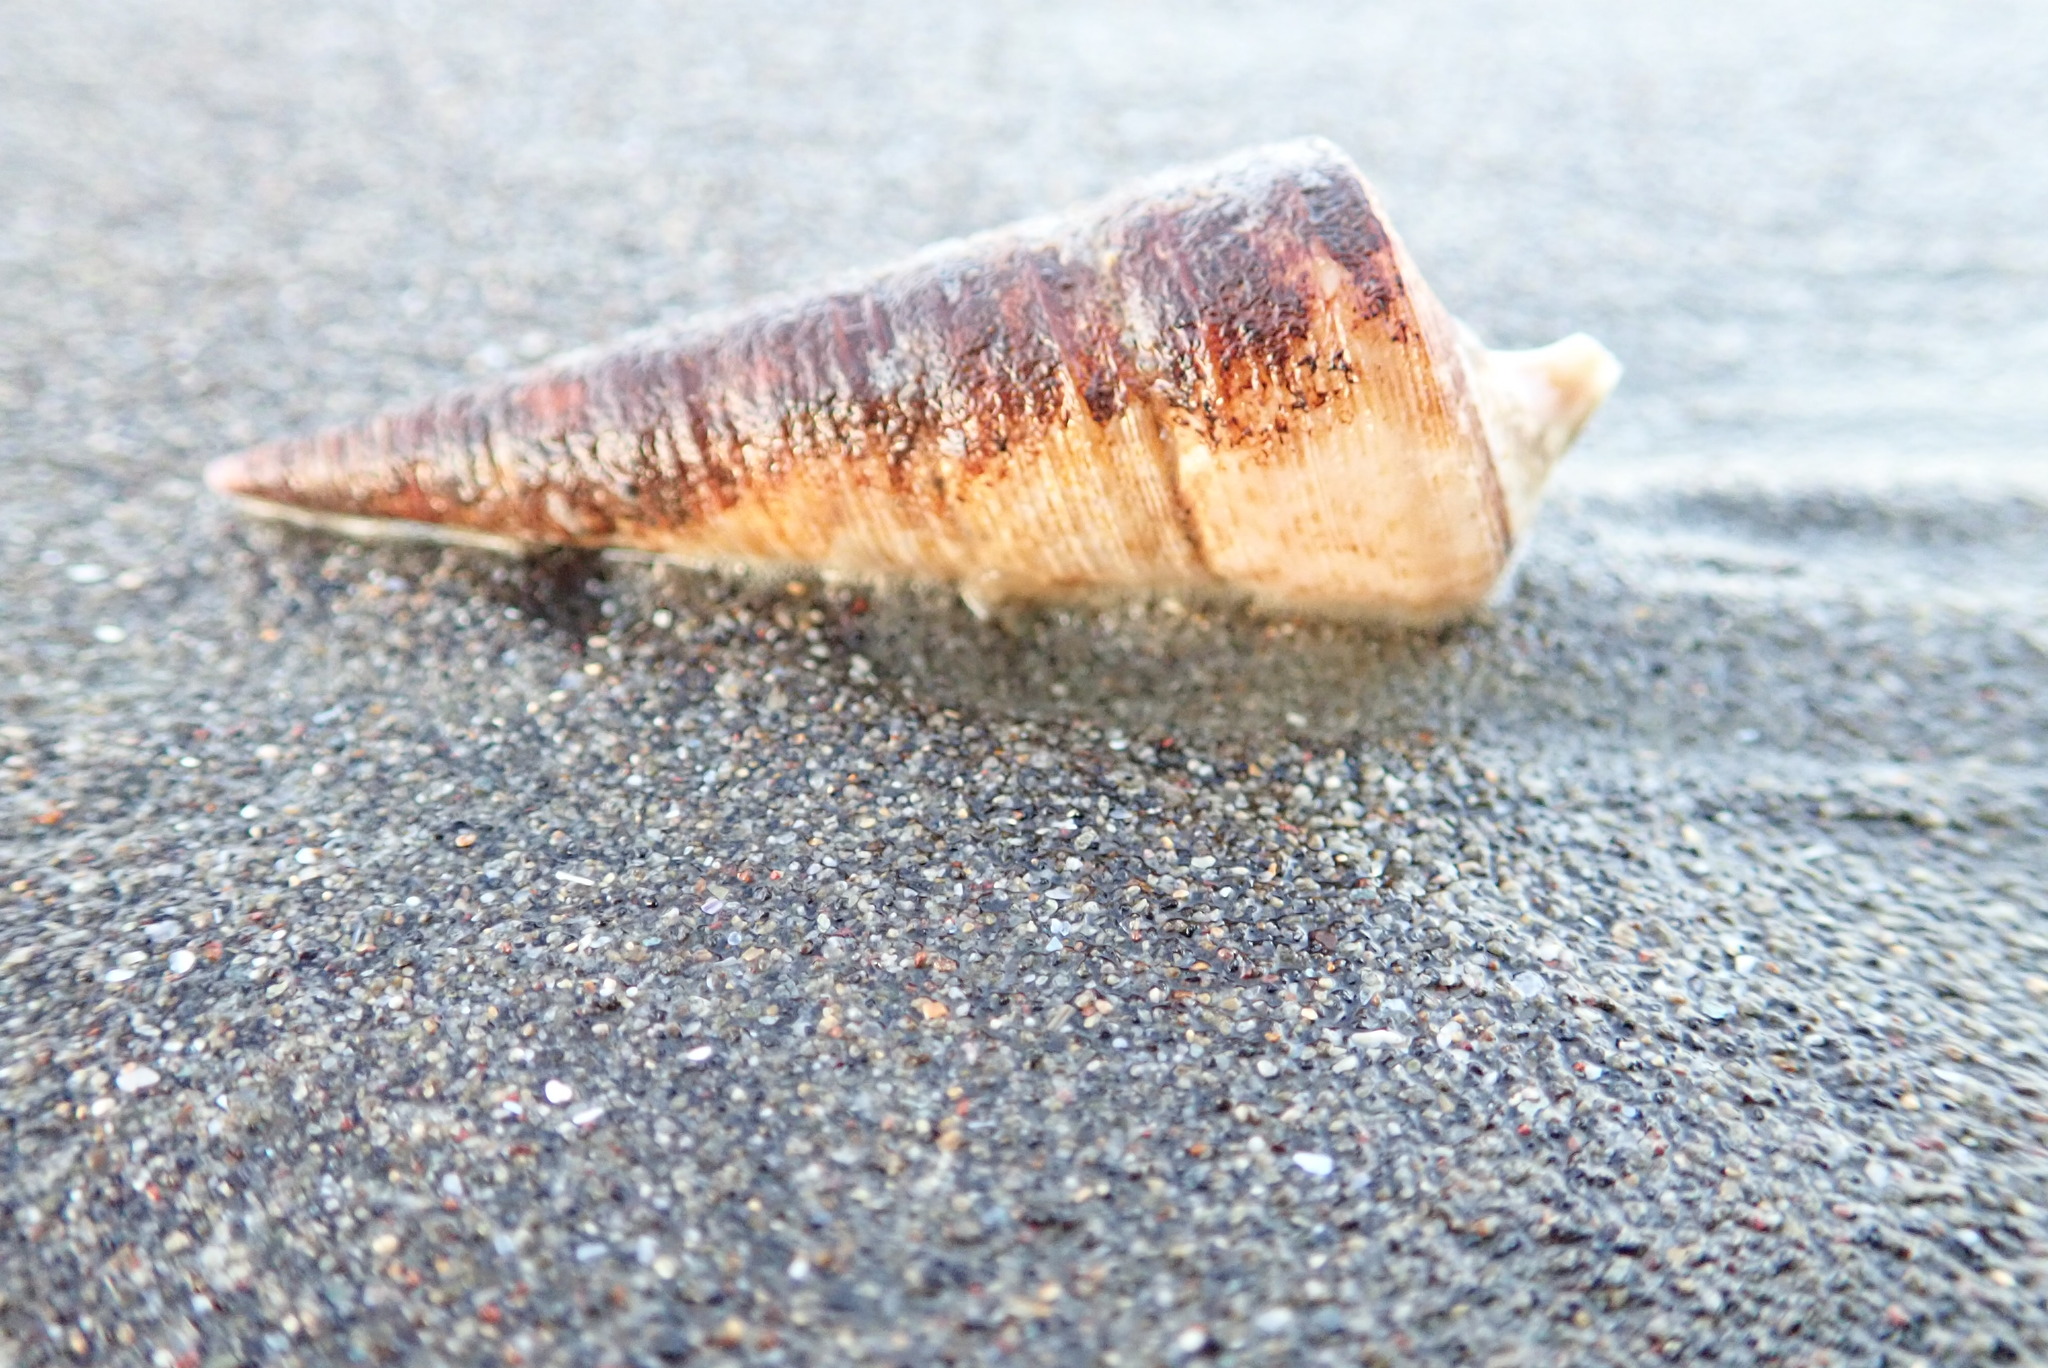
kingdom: Animalia
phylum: Mollusca
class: Gastropoda
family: Turritellidae
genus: Maoricolpus
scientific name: Maoricolpus roseus
